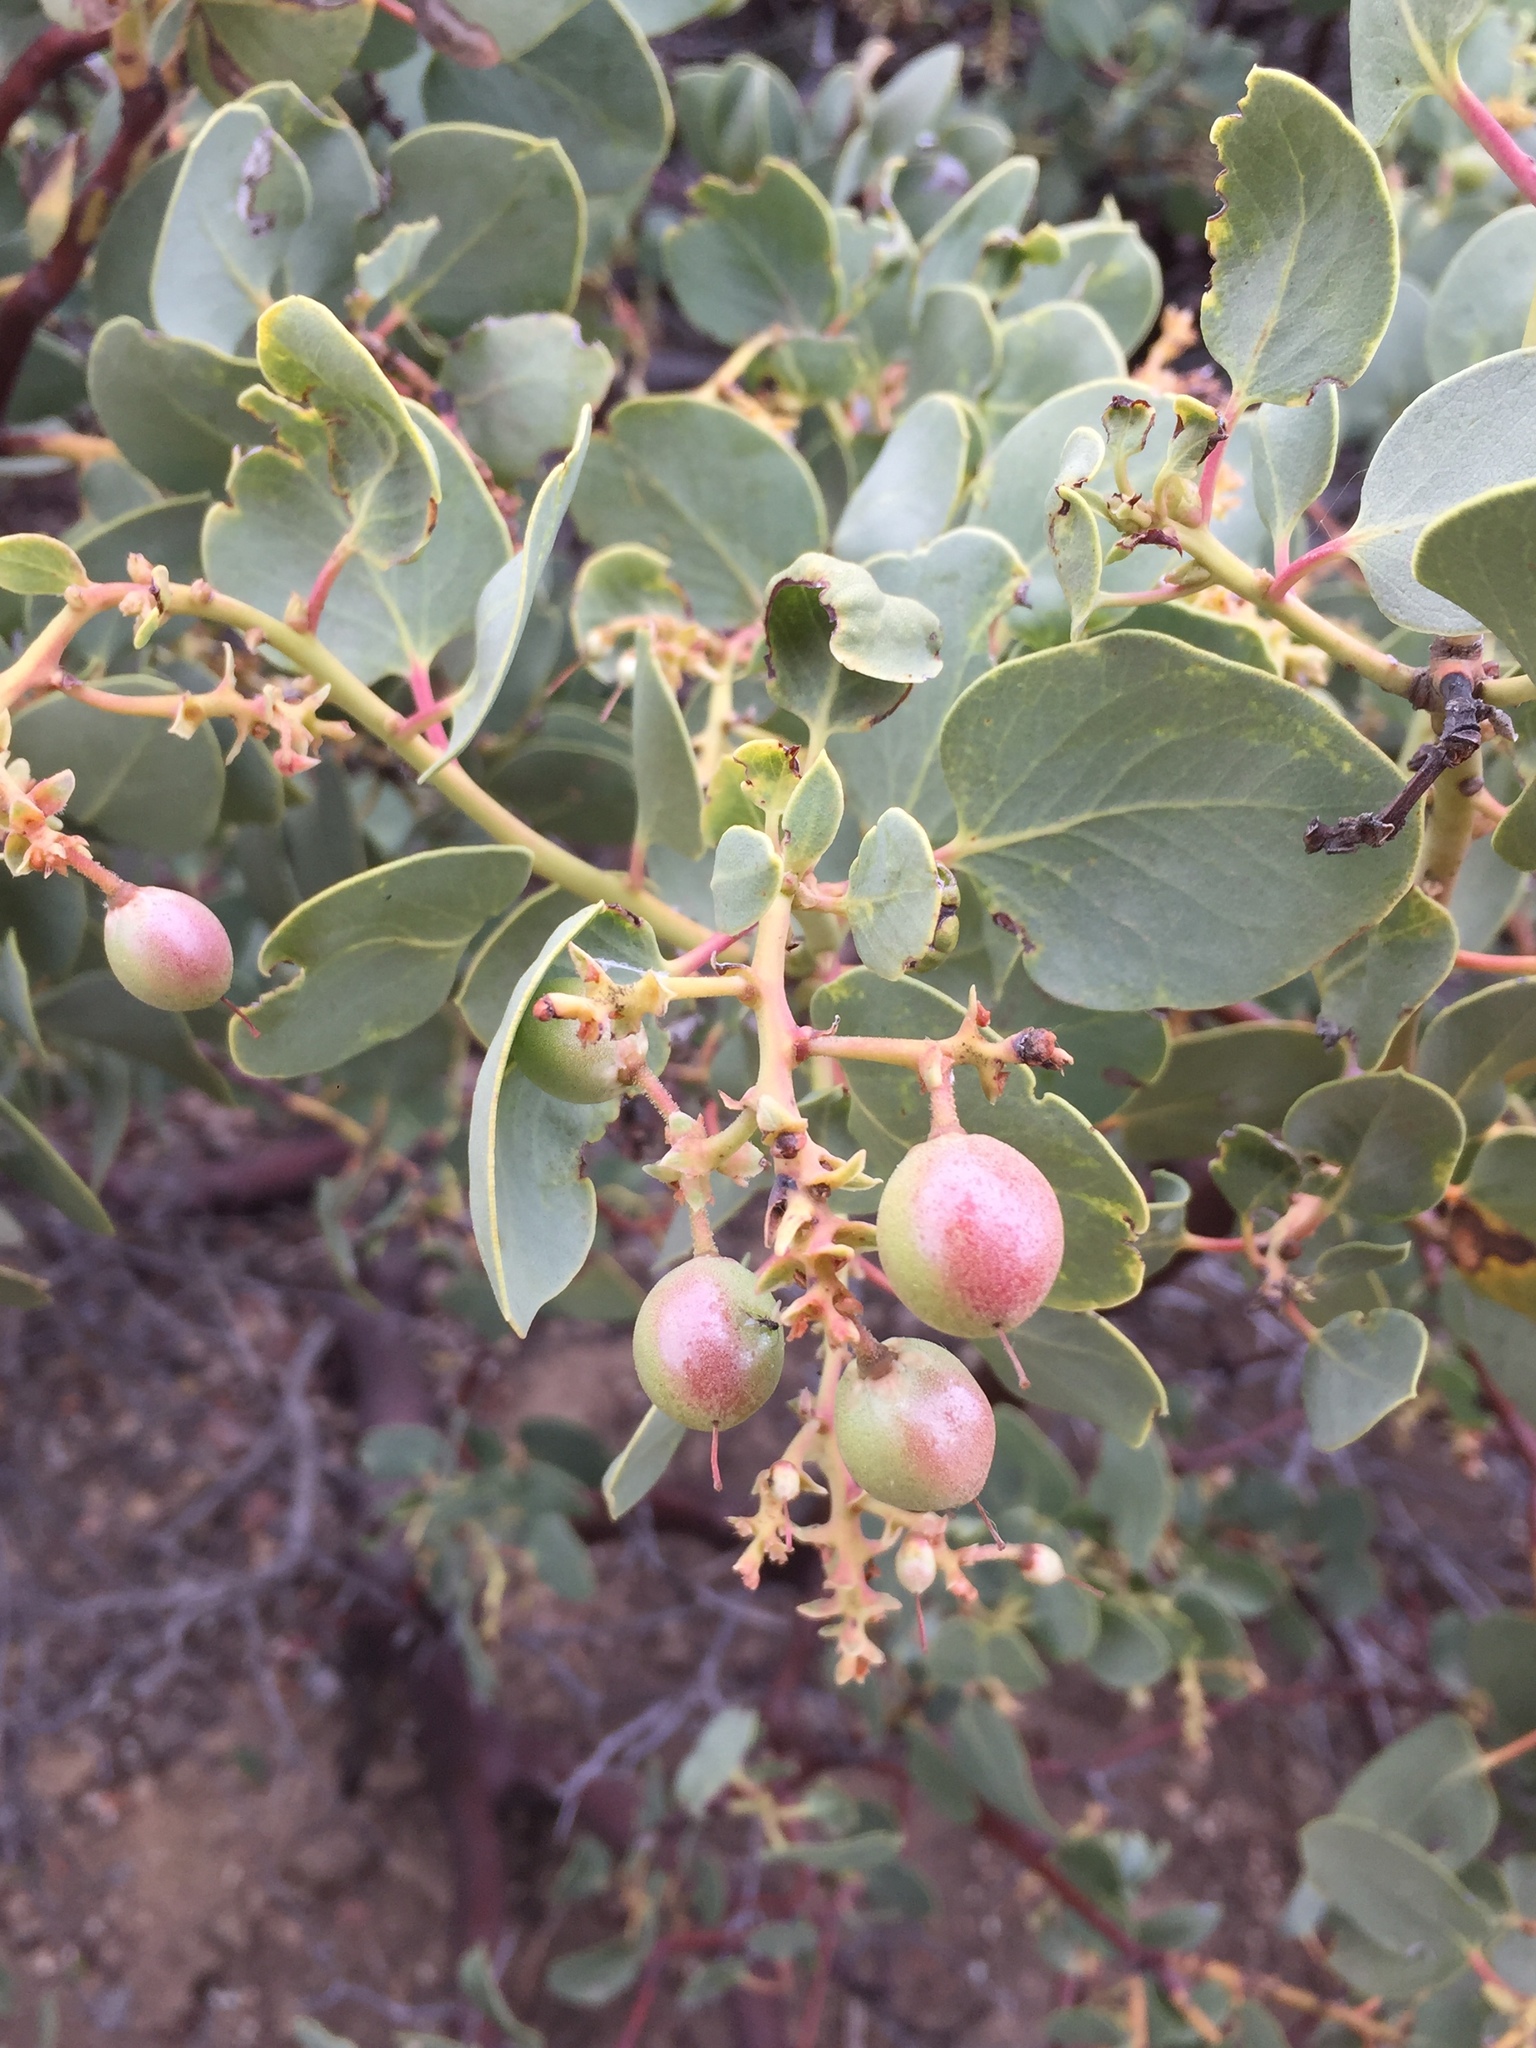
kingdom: Plantae
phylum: Tracheophyta
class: Magnoliopsida
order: Ericales
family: Ericaceae
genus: Arctostaphylos
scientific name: Arctostaphylos glauca
